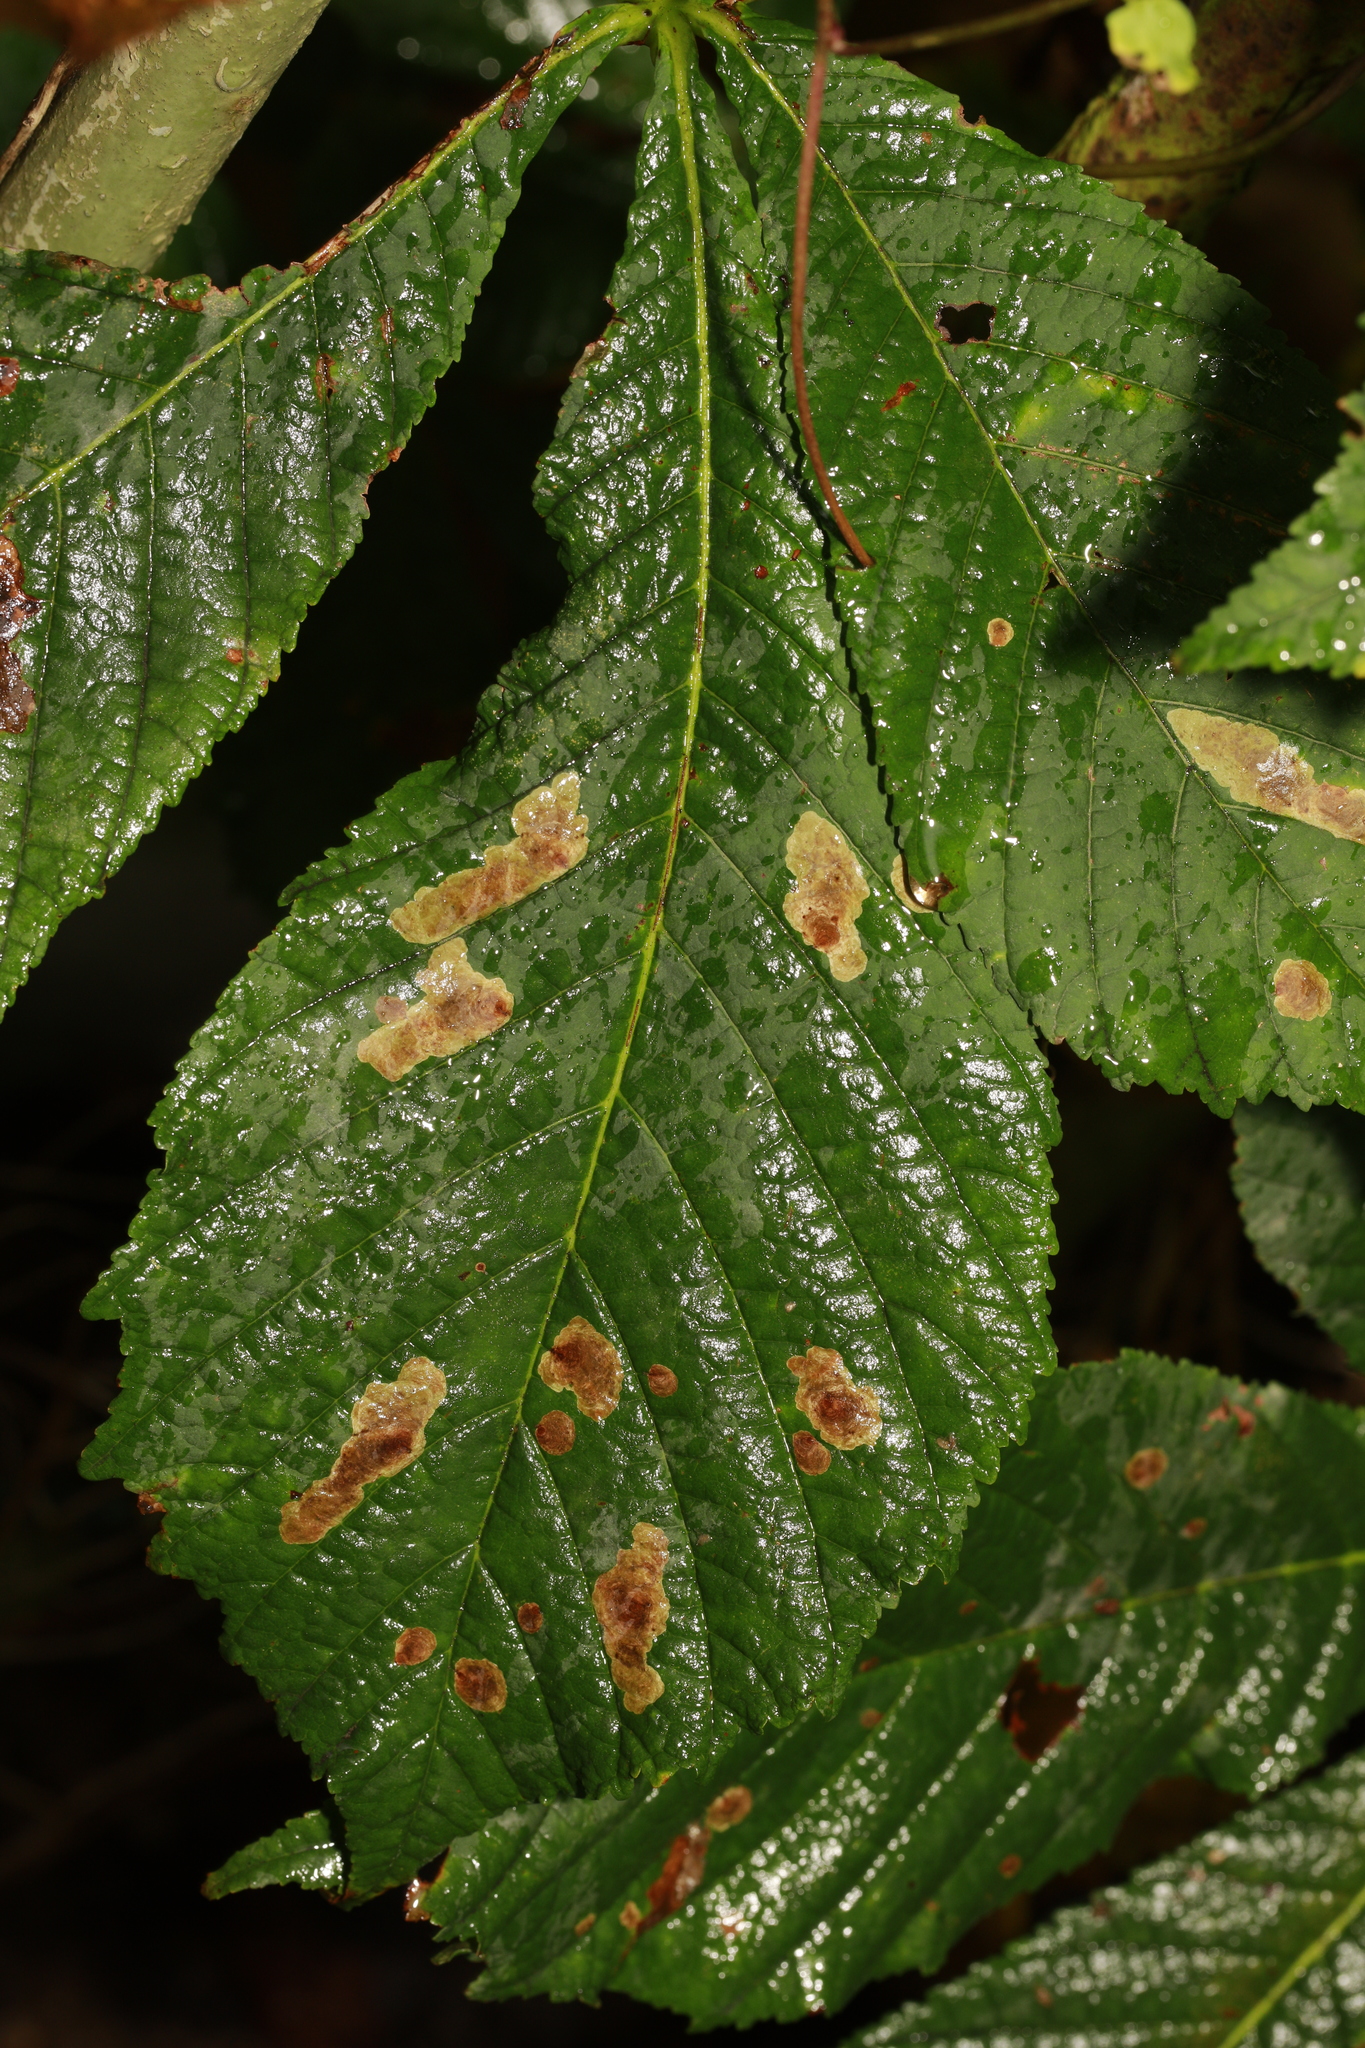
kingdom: Plantae
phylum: Tracheophyta
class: Magnoliopsida
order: Sapindales
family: Sapindaceae
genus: Aesculus
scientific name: Aesculus hippocastanum
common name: Horse-chestnut
